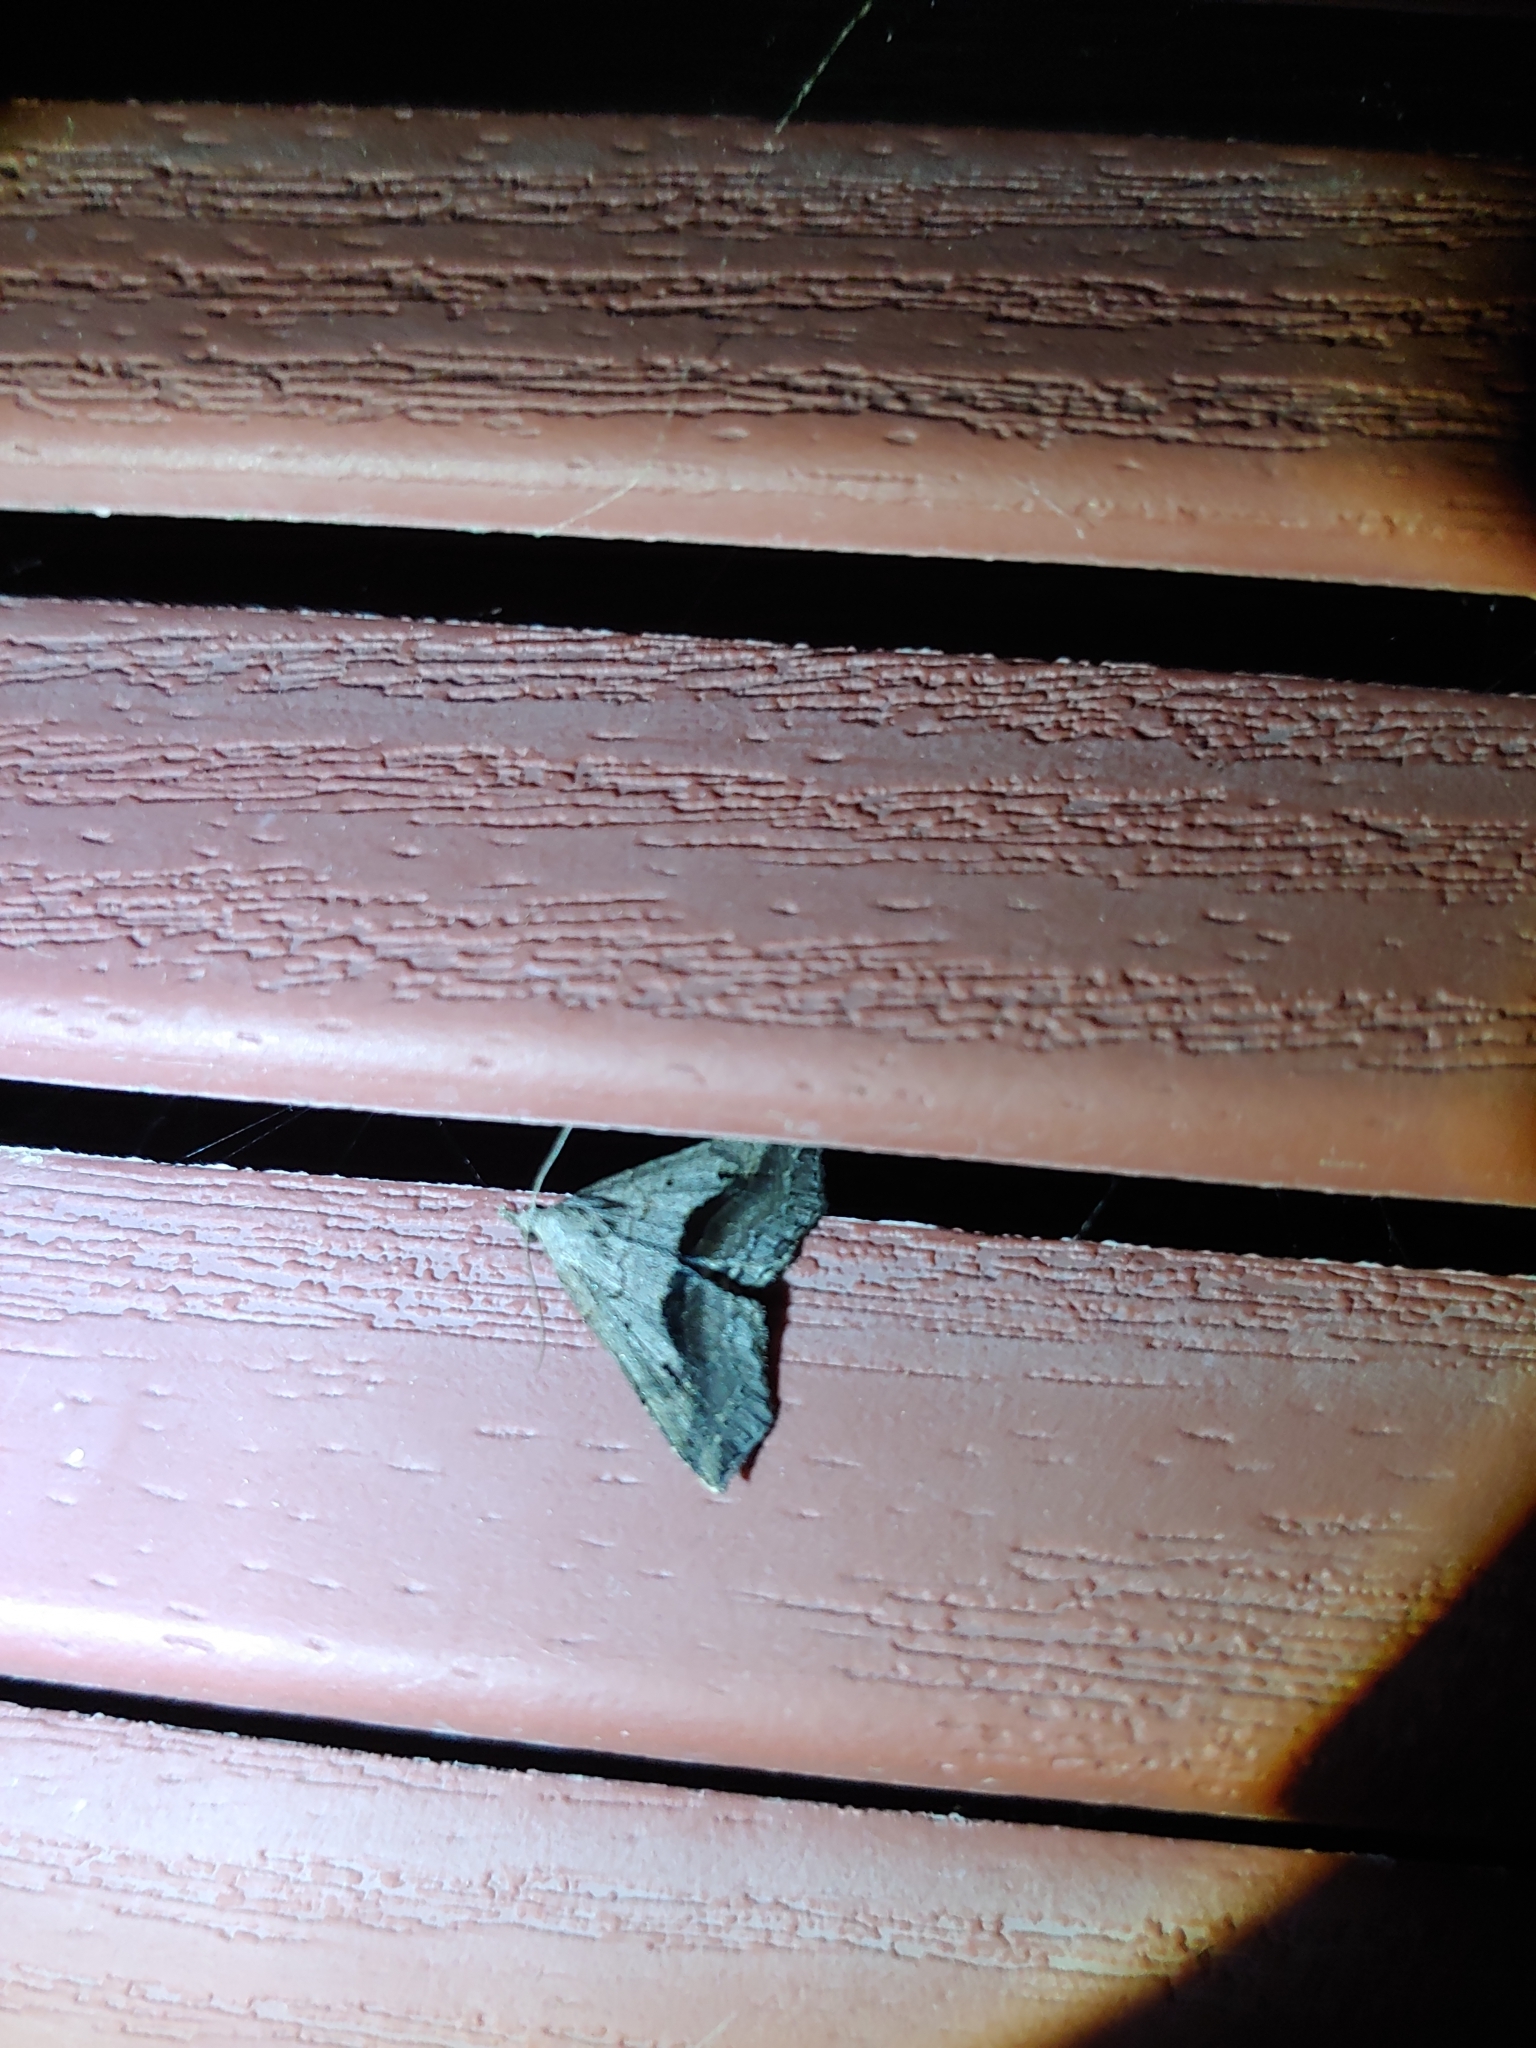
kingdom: Animalia
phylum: Arthropoda
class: Insecta
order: Lepidoptera
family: Erebidae
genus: Spargaloma
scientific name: Spargaloma perditalis
